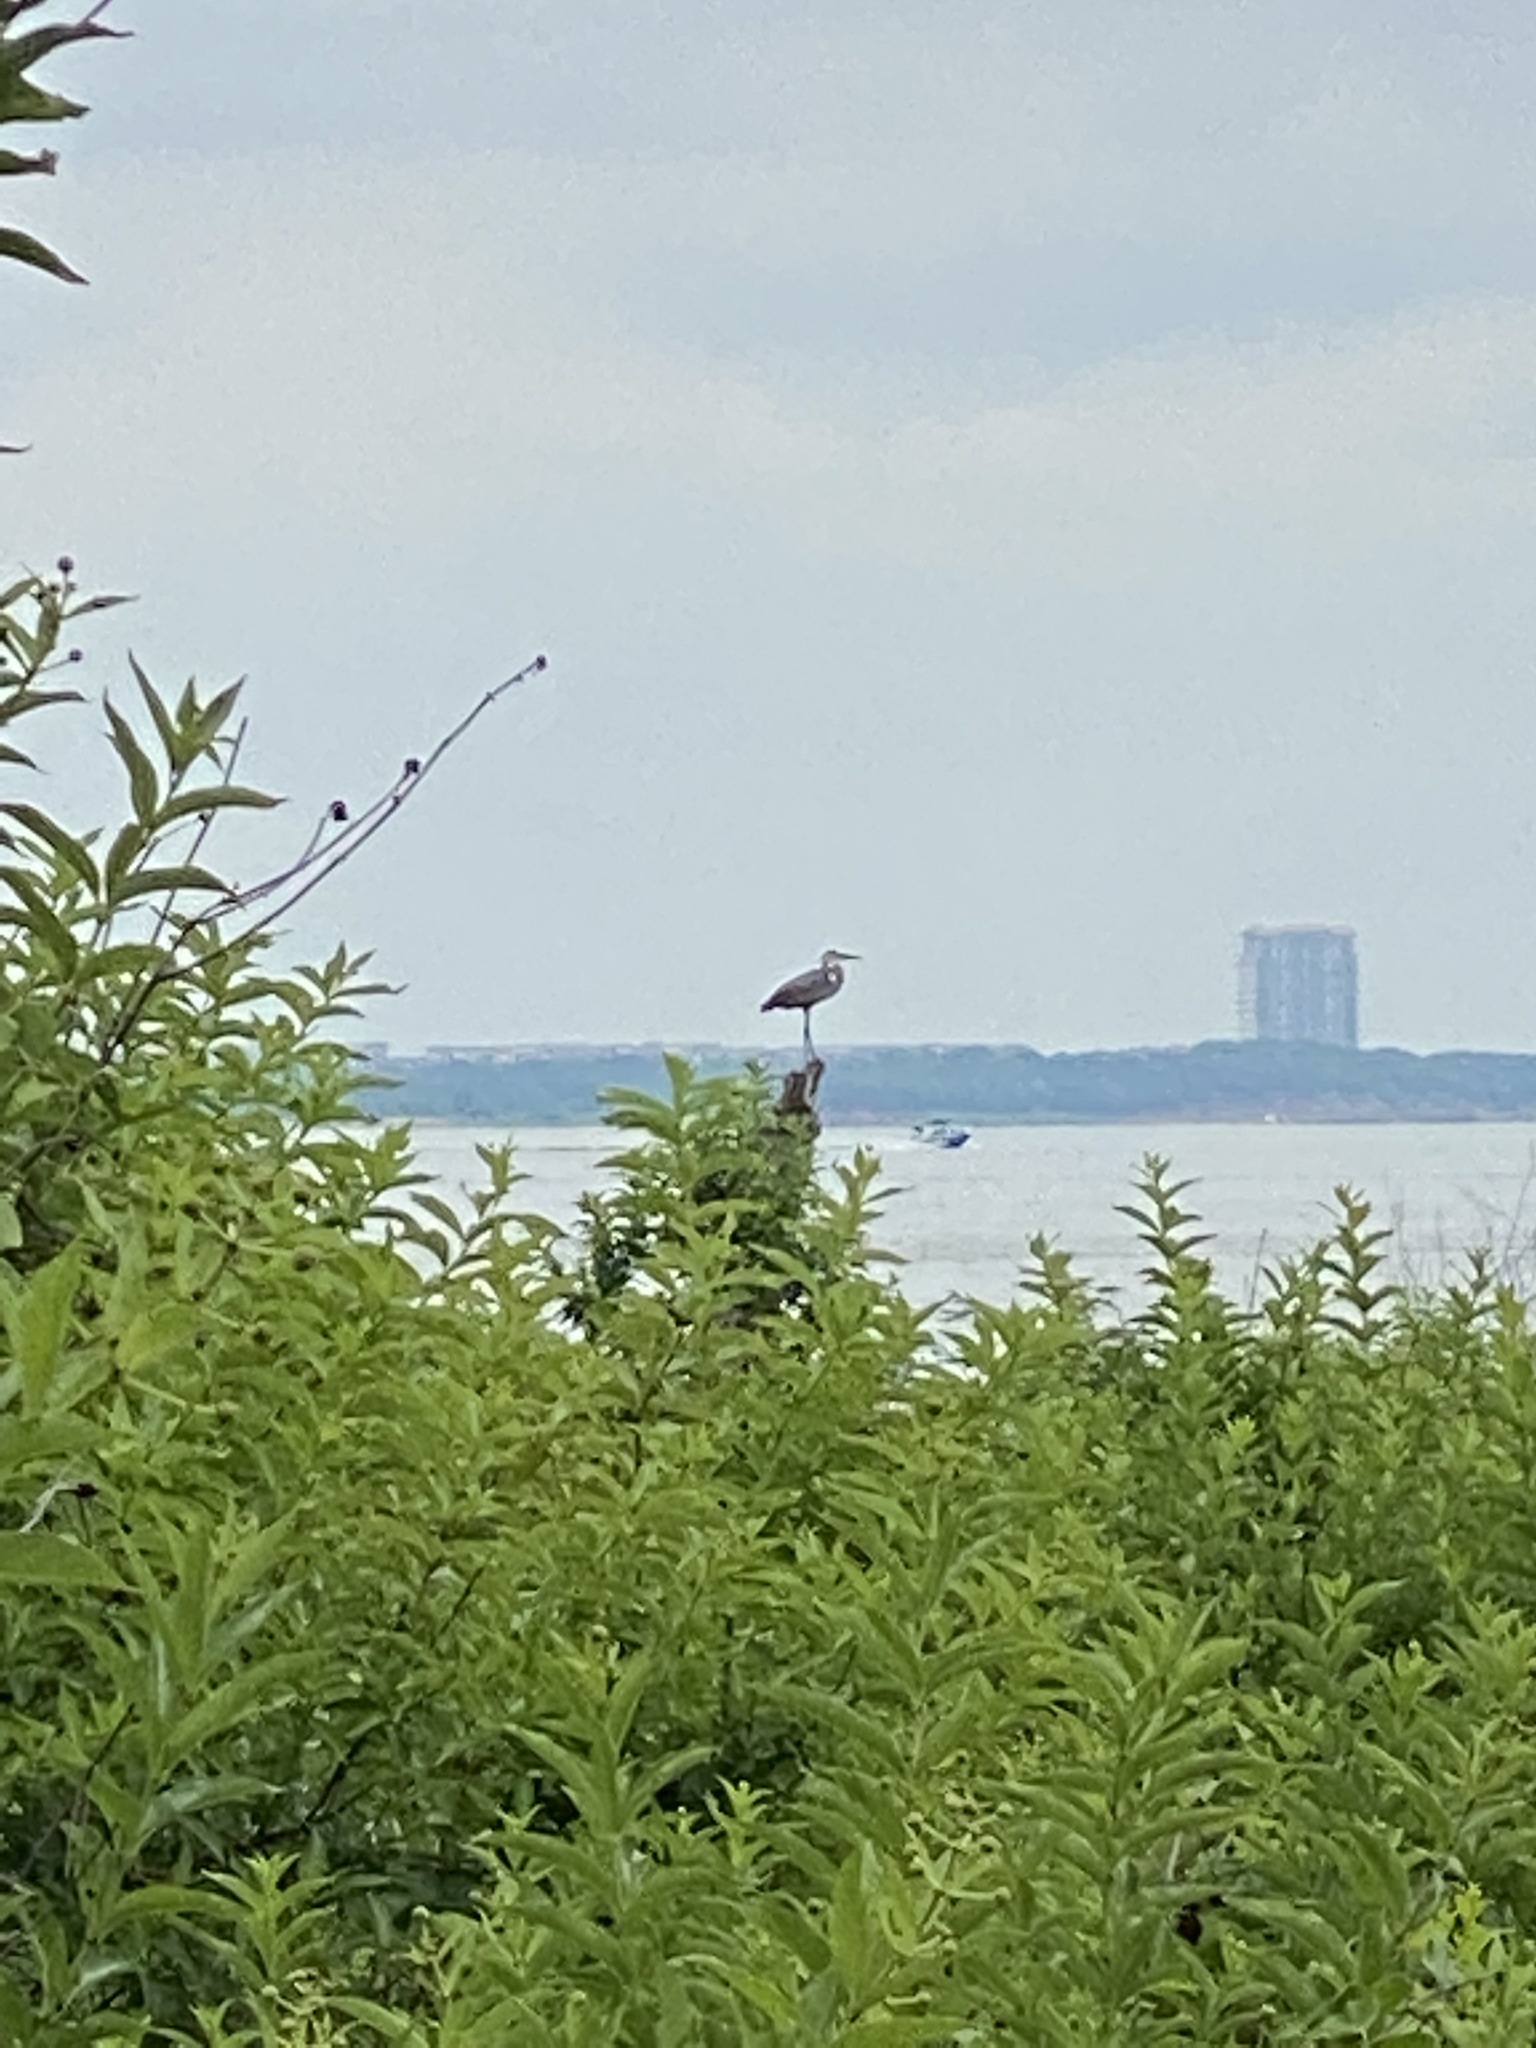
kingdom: Animalia
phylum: Chordata
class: Aves
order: Pelecaniformes
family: Ardeidae
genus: Ardea
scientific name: Ardea herodias
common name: Great blue heron
